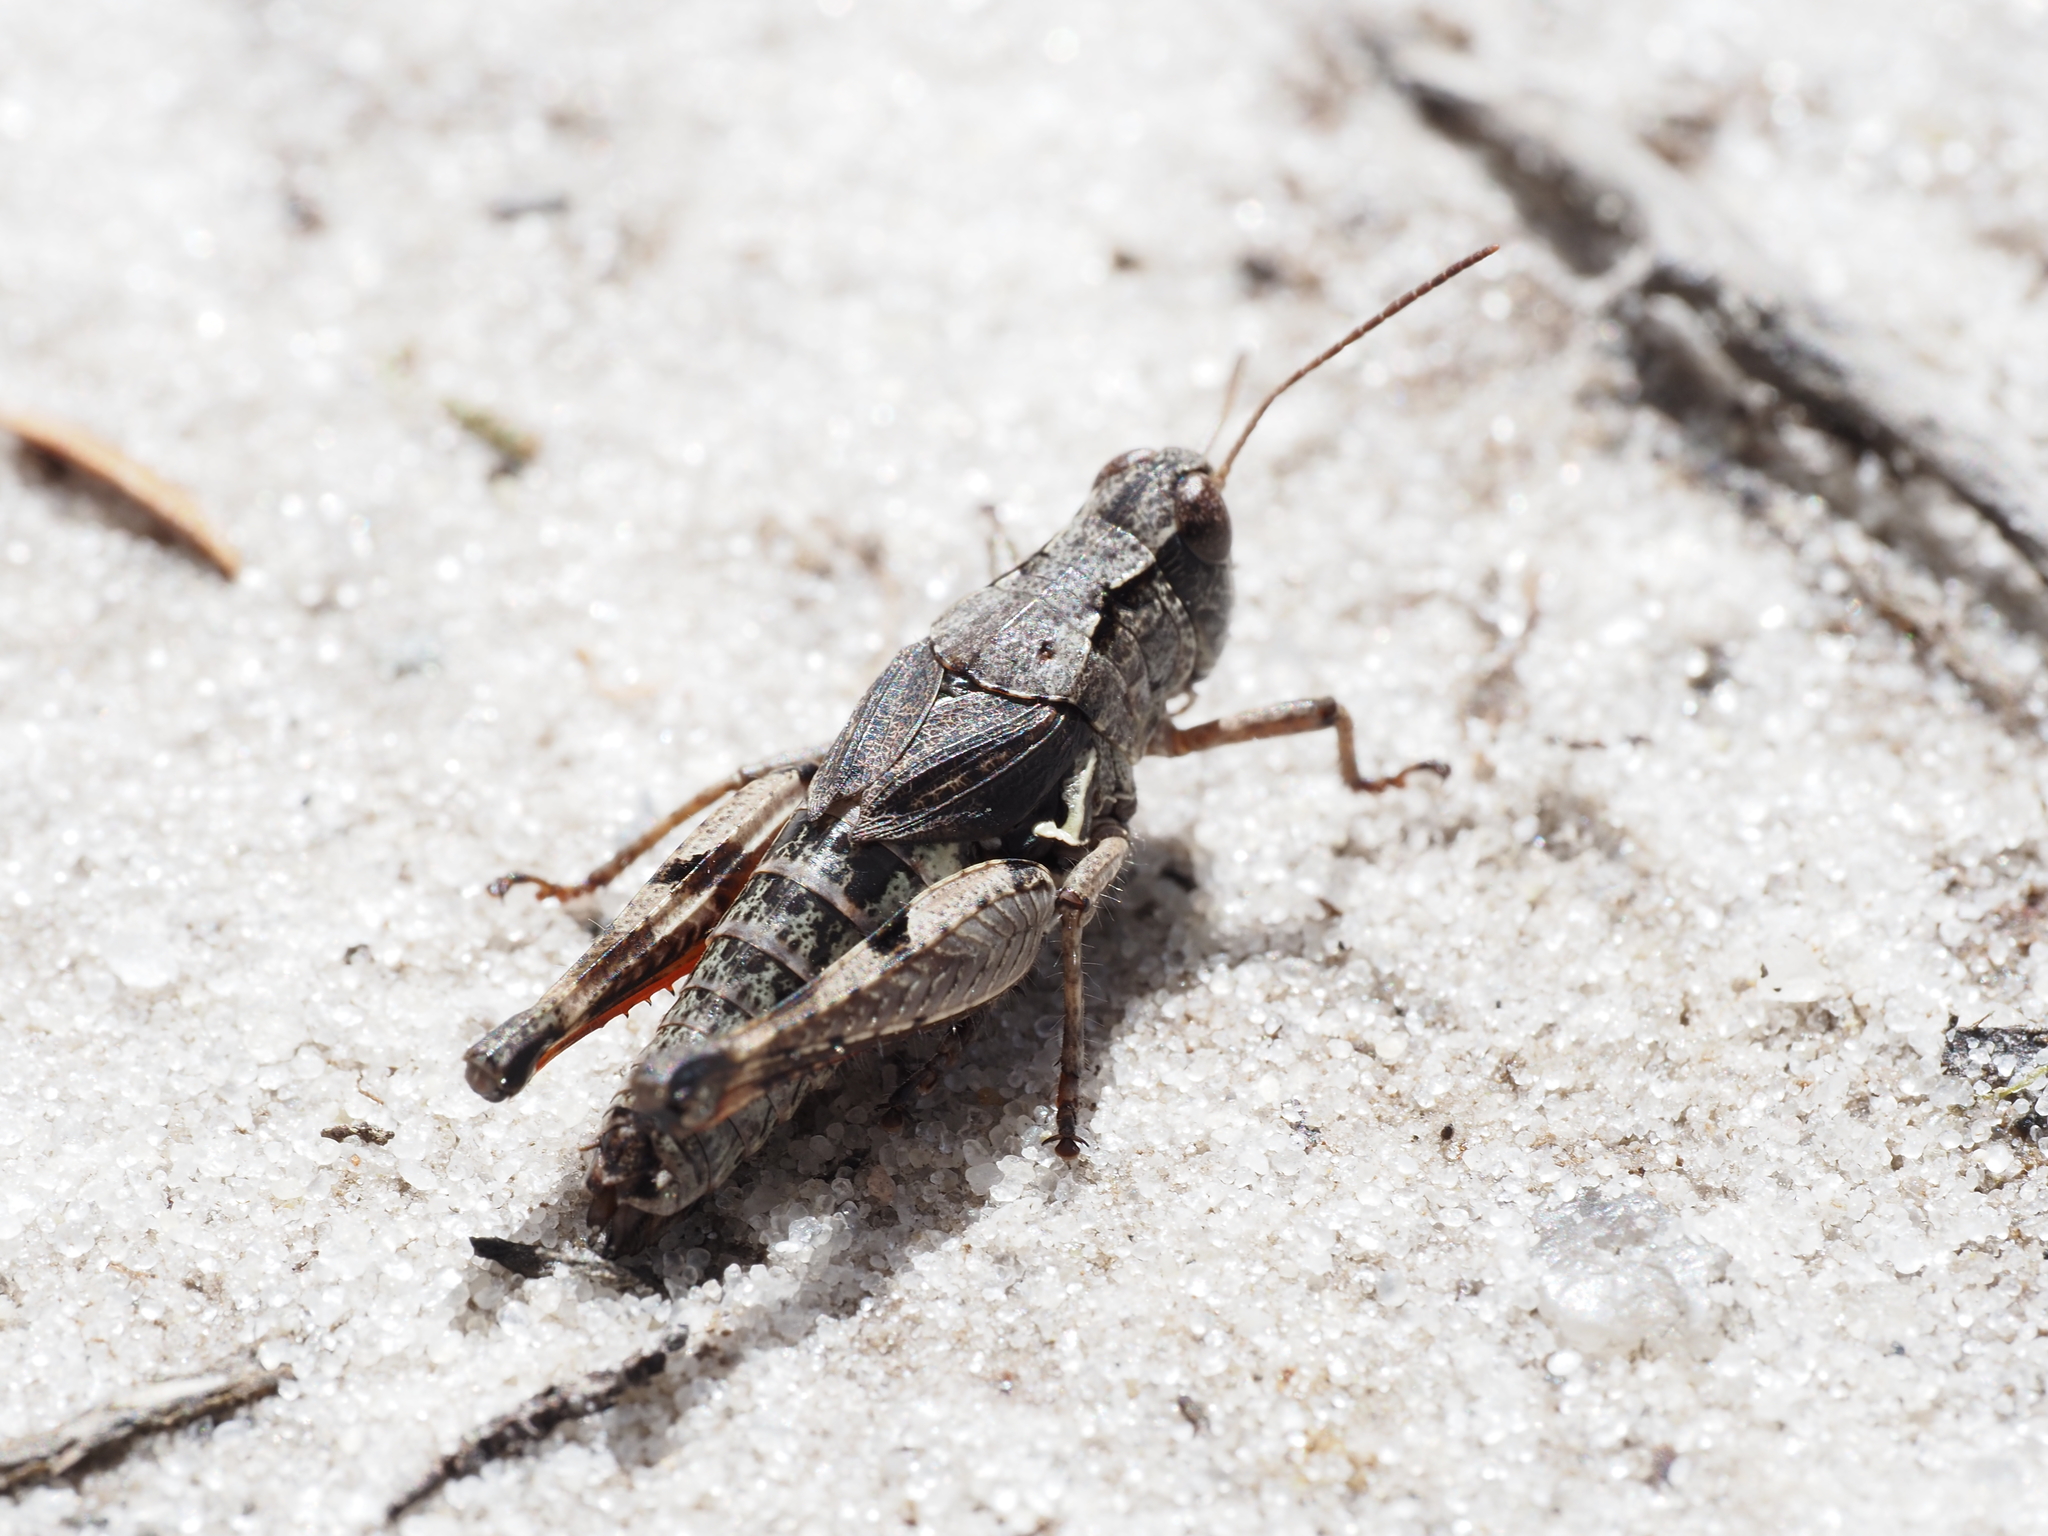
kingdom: Animalia
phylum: Arthropoda
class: Insecta
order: Orthoptera
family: Acrididae
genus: Phaulacridium
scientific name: Phaulacridium marginale
